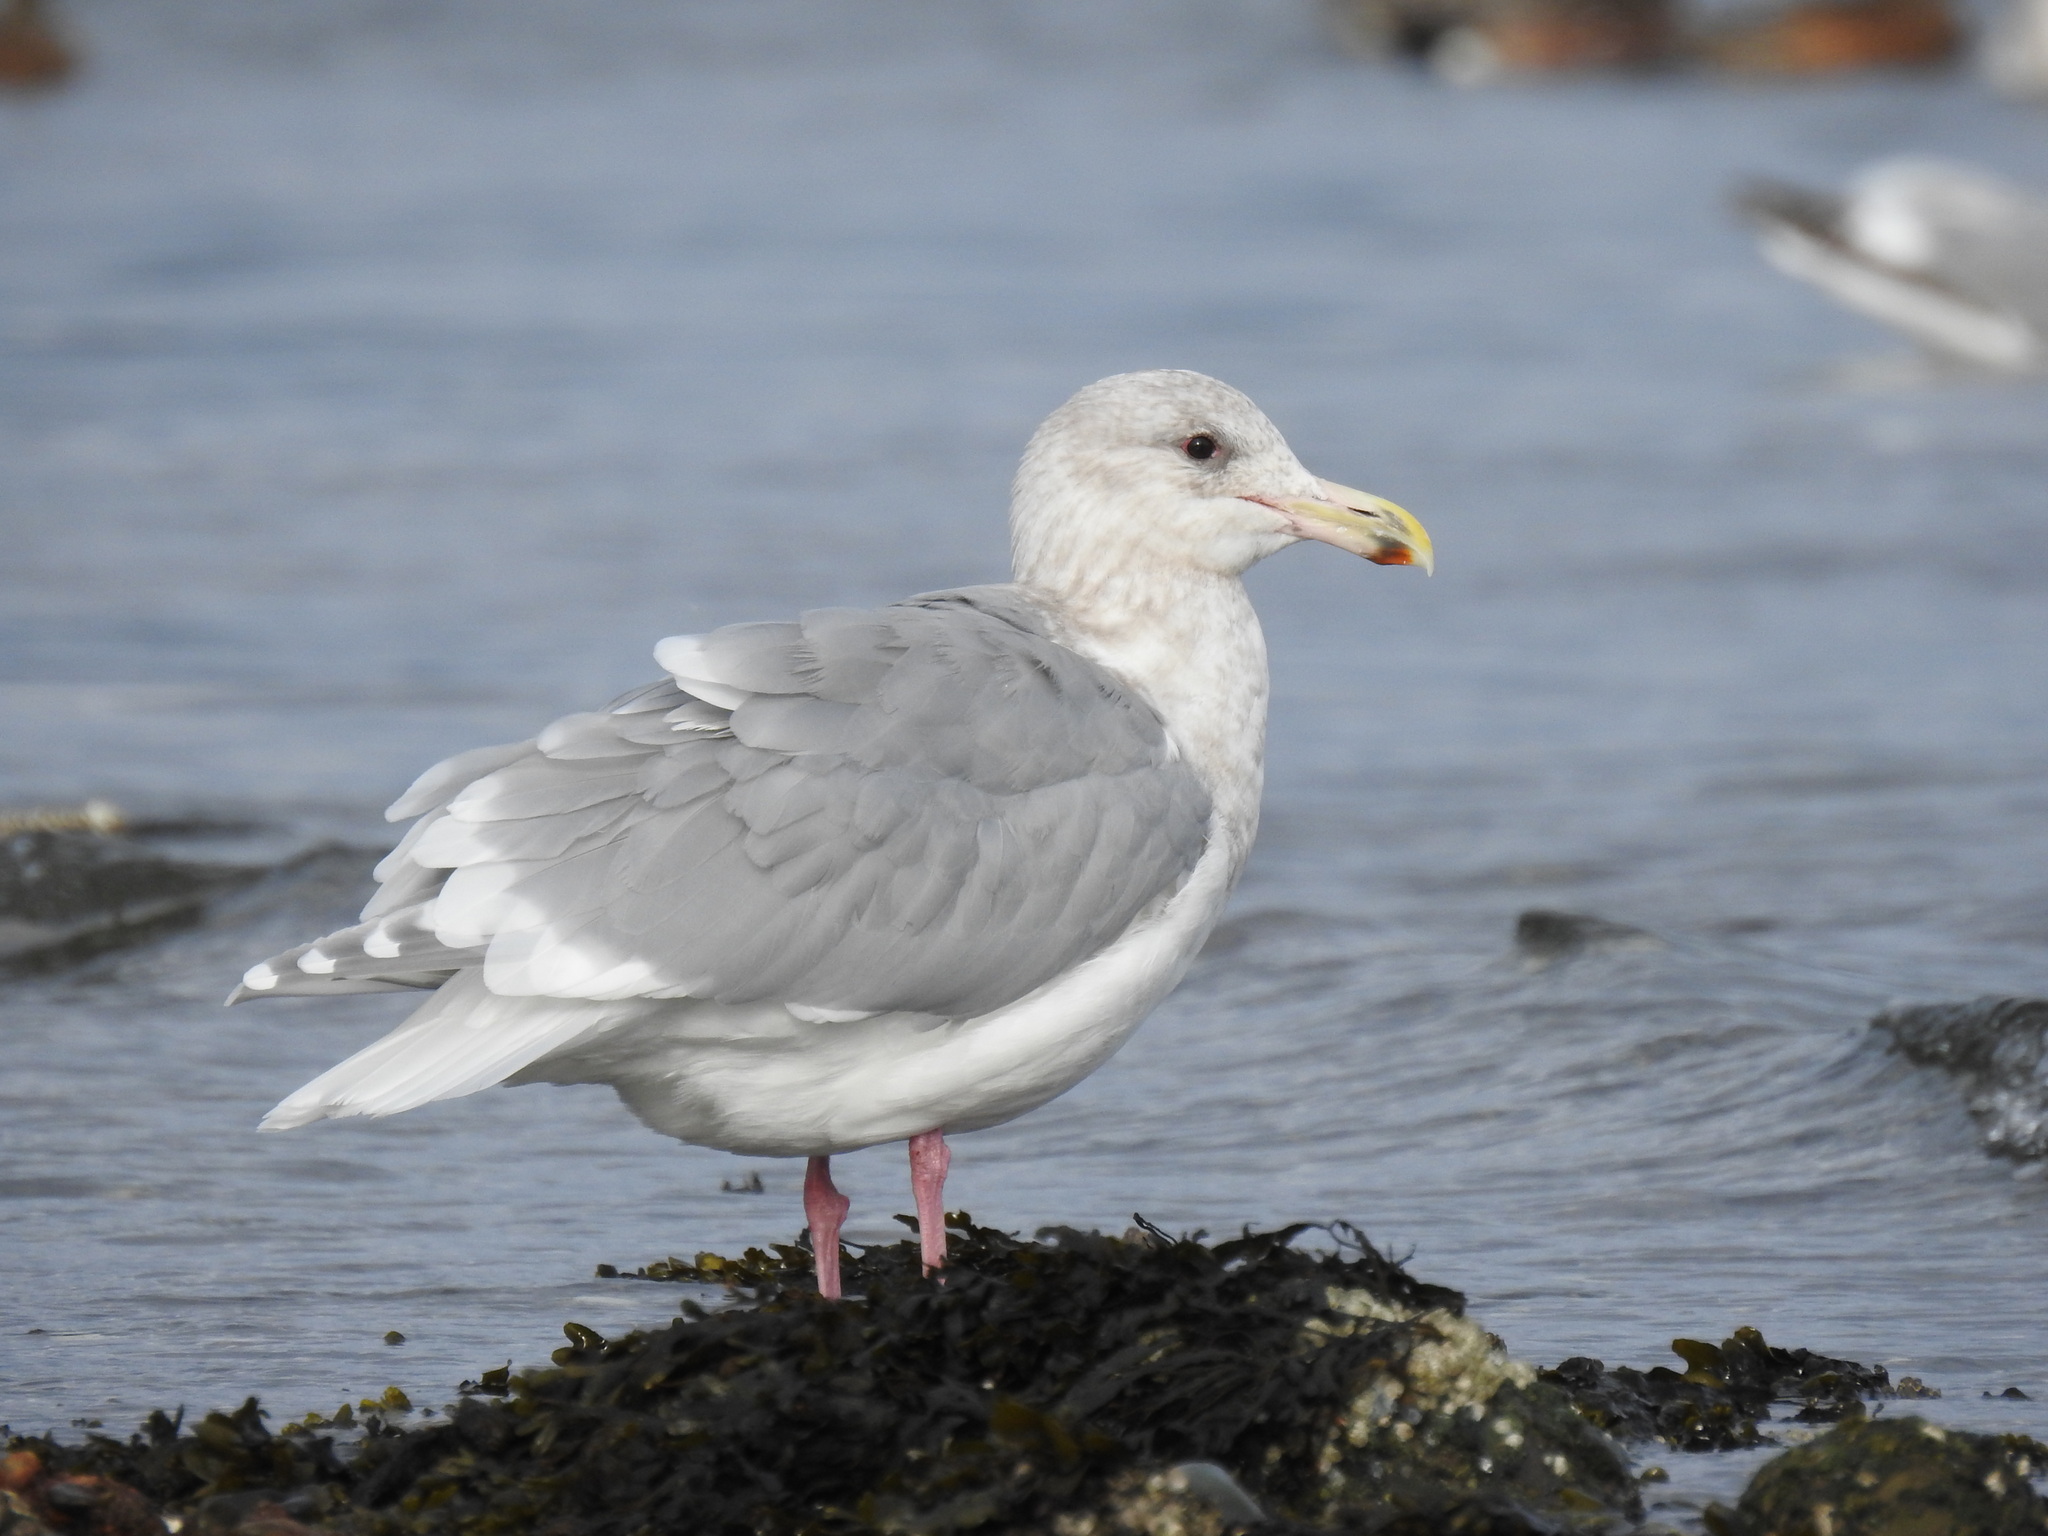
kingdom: Animalia
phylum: Chordata
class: Aves
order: Charadriiformes
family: Laridae
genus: Larus
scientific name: Larus glaucescens
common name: Glaucous-winged gull
